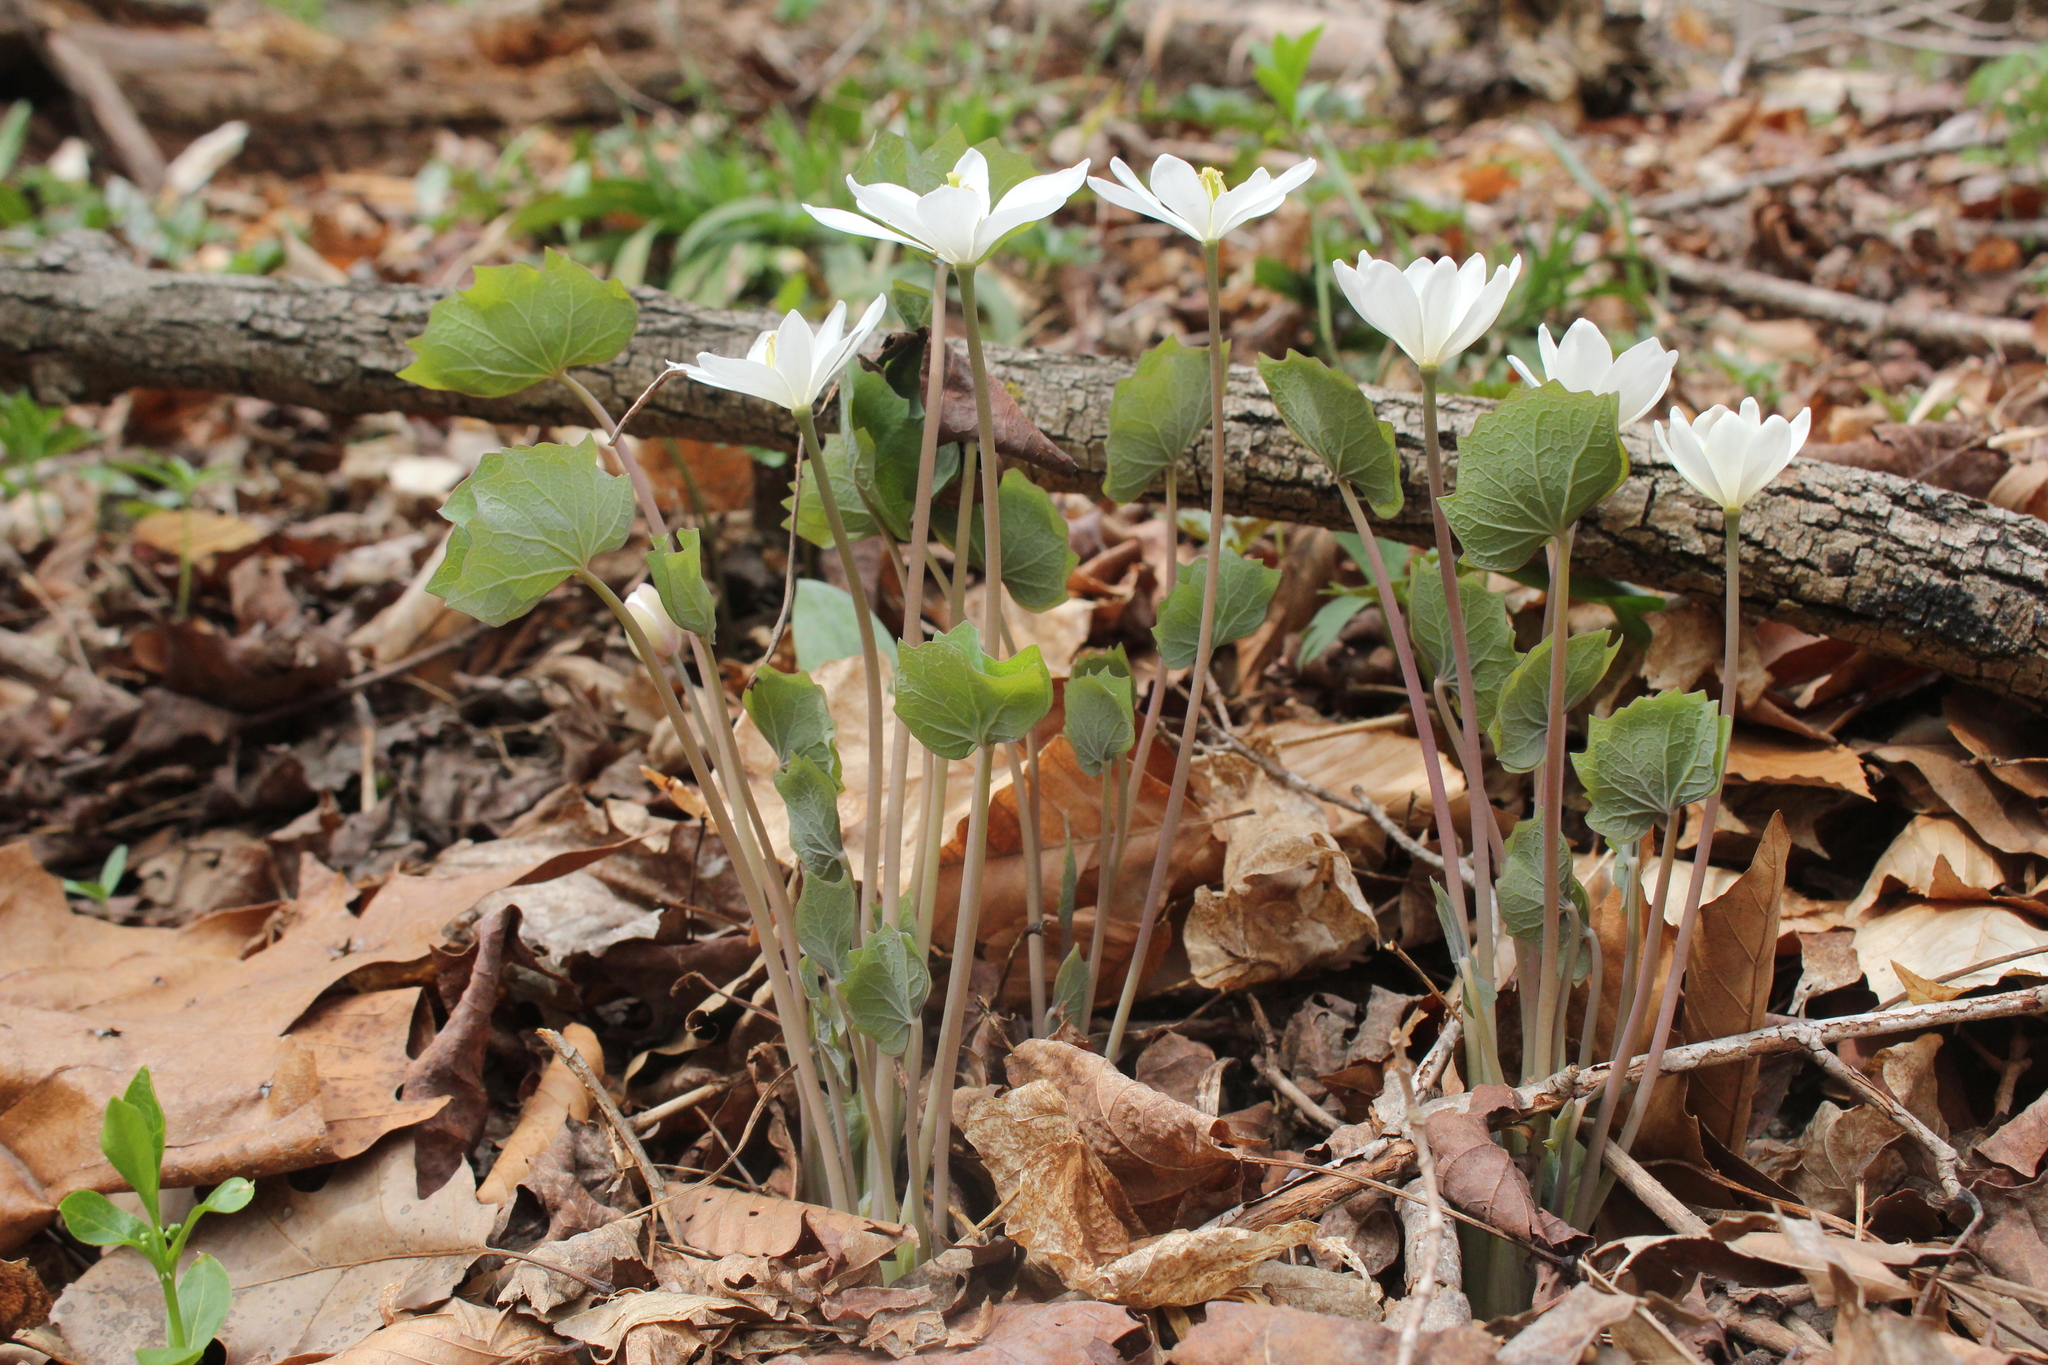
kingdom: Plantae
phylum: Tracheophyta
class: Magnoliopsida
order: Ranunculales
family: Berberidaceae
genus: Jeffersonia
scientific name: Jeffersonia diphylla
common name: Rheumatism-root
